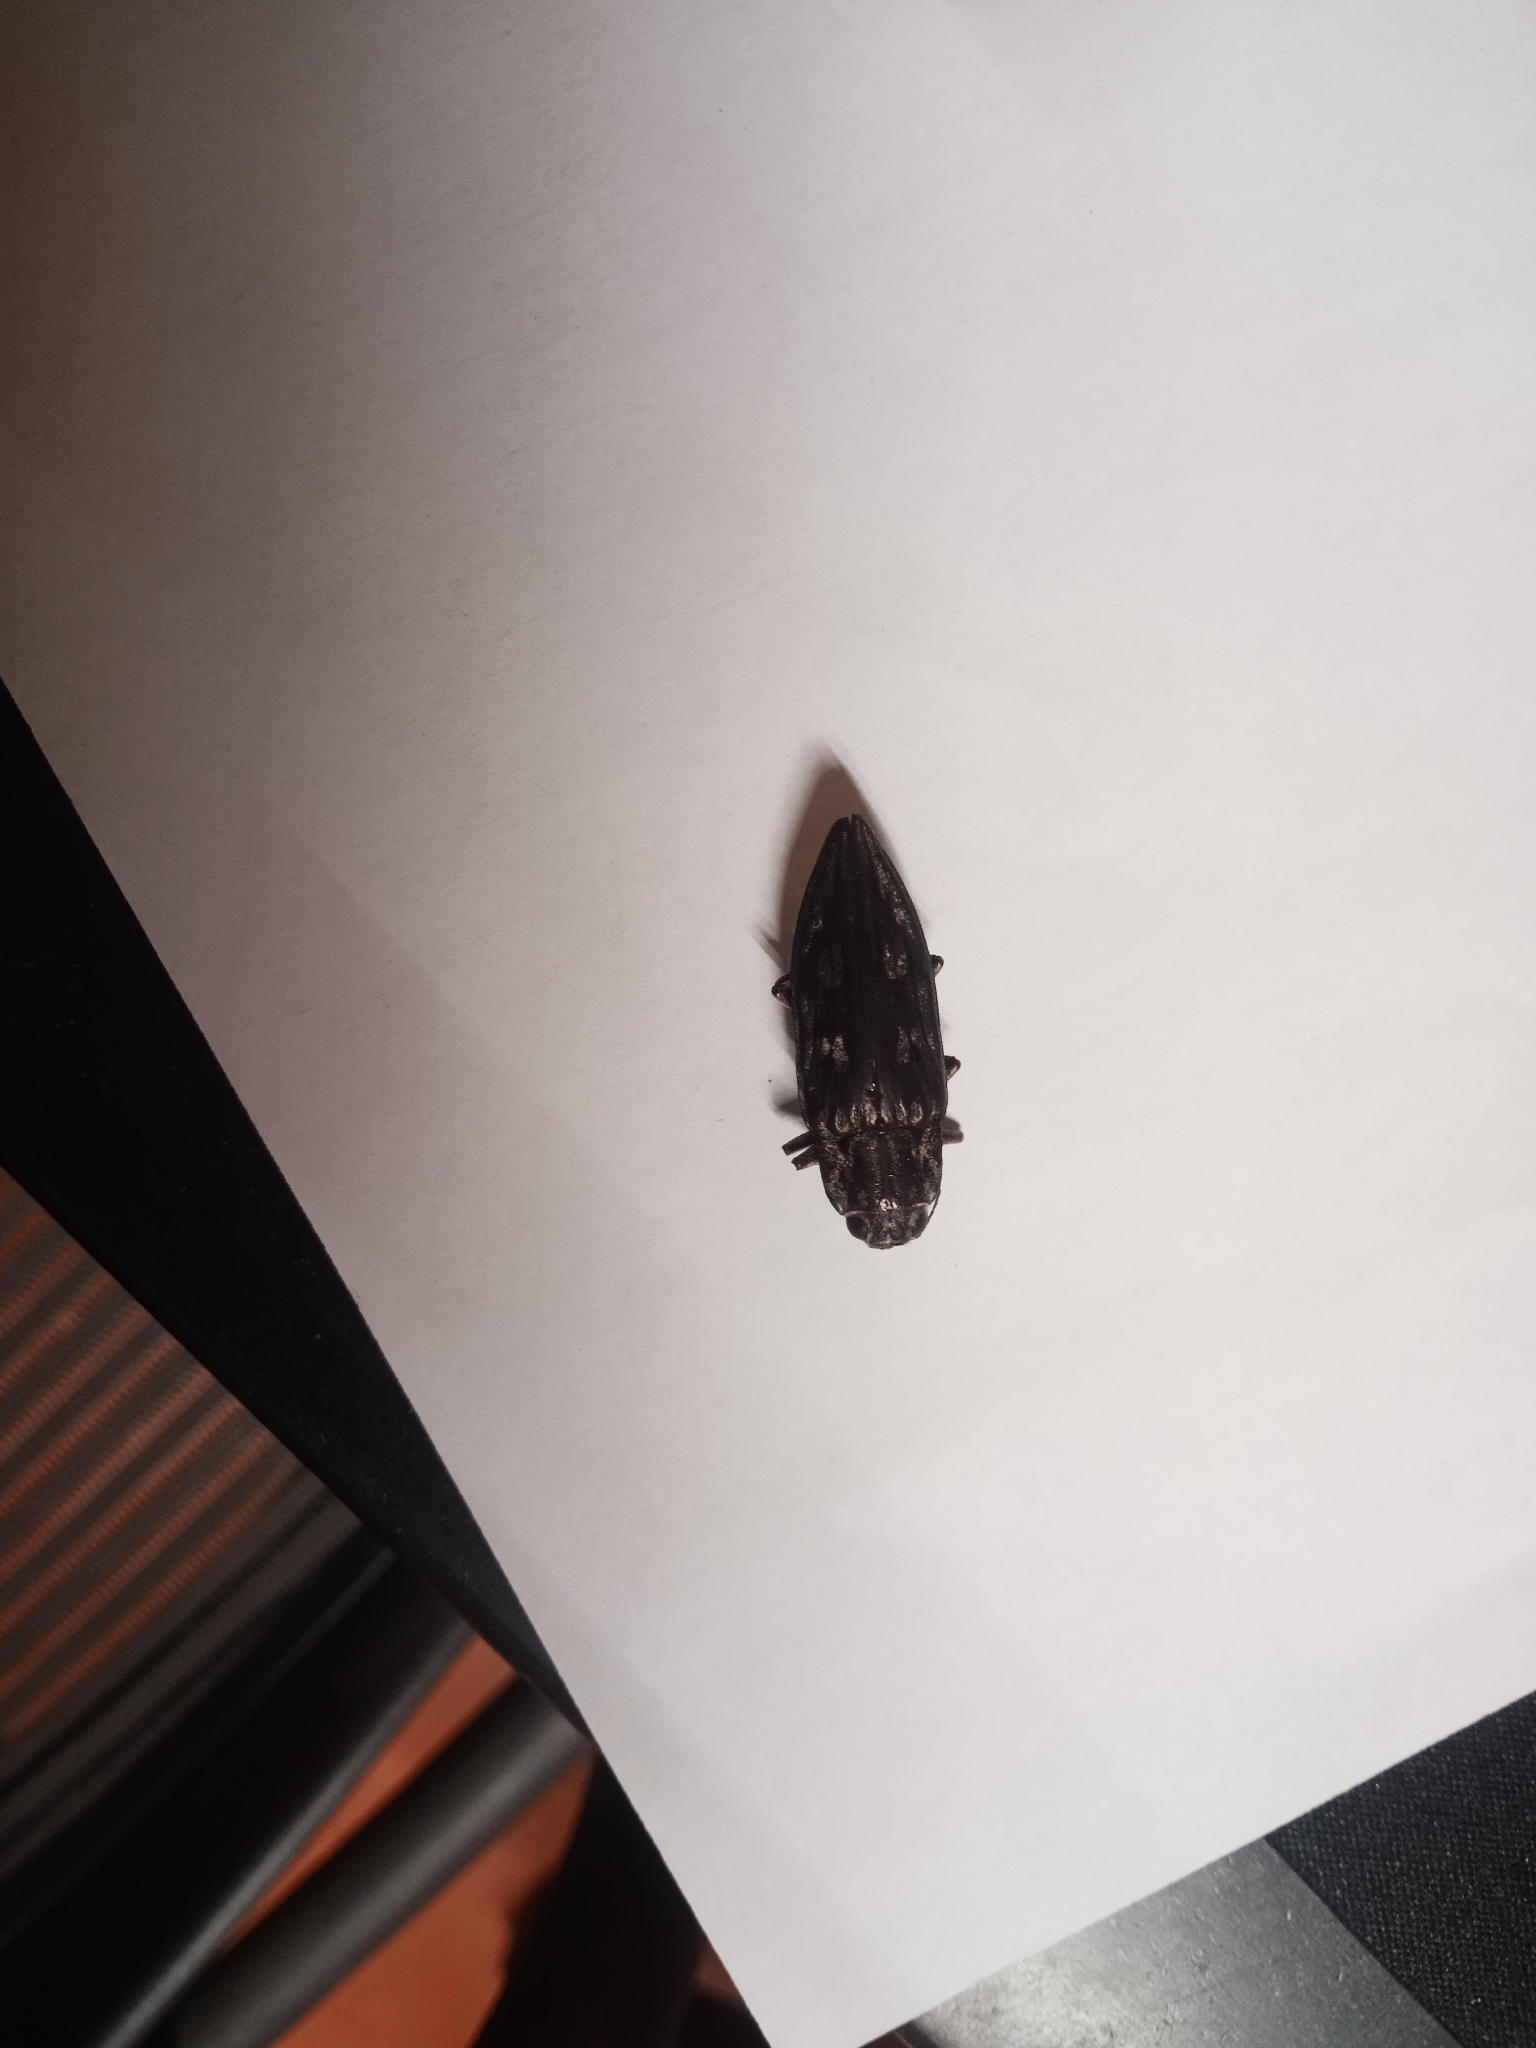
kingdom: Animalia
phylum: Arthropoda
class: Insecta
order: Coleoptera
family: Buprestidae
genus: Chalcophora
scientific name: Chalcophora virginiensis
